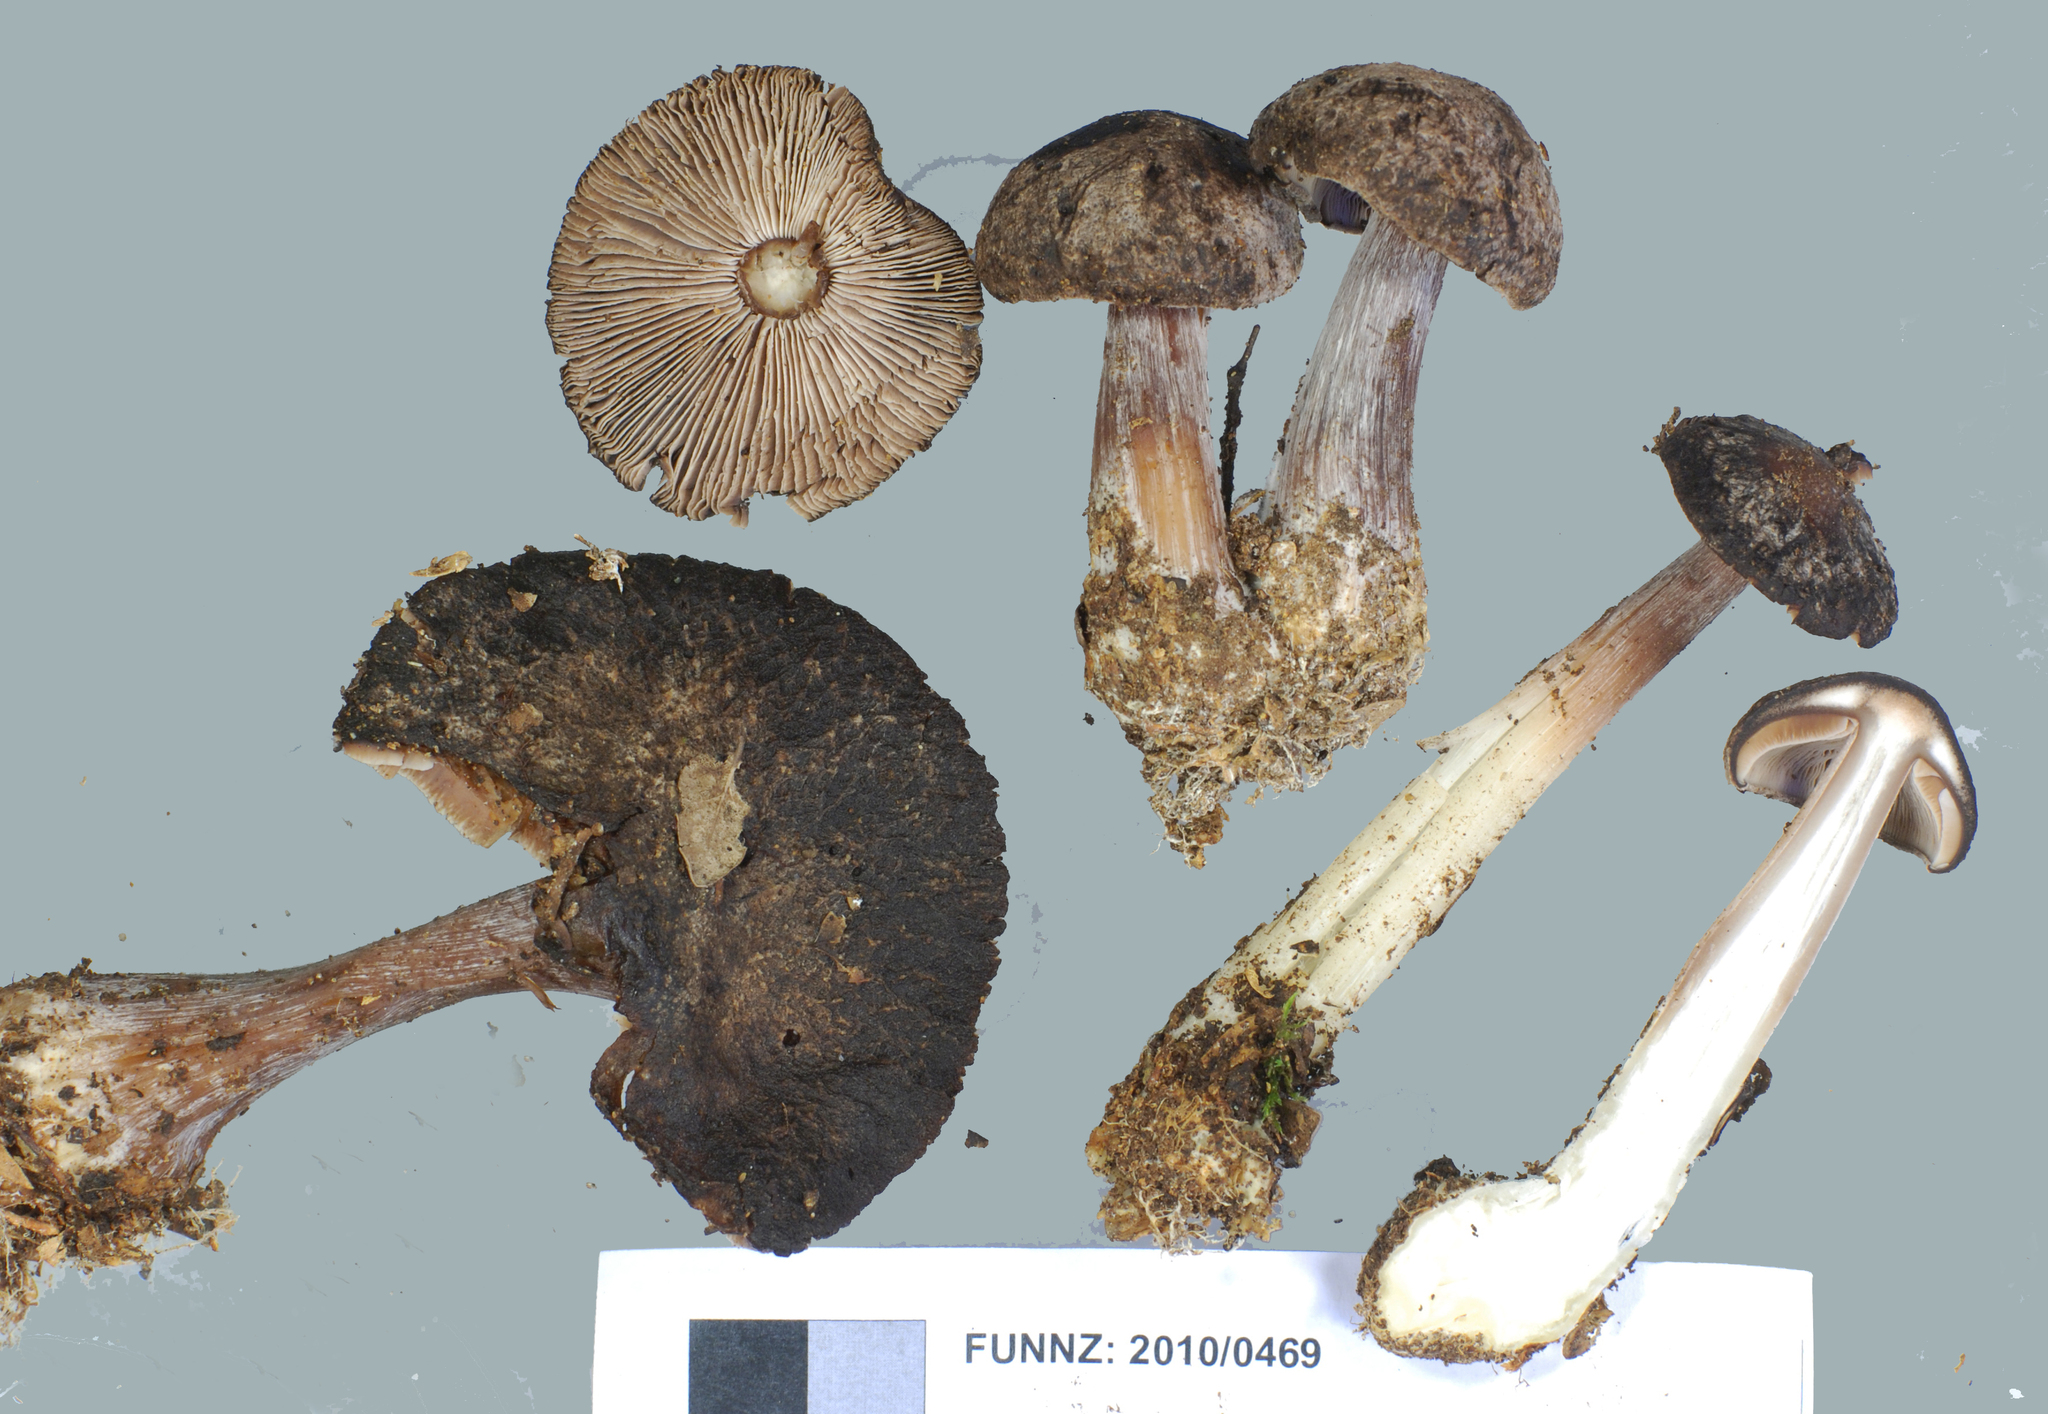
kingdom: Fungi
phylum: Basidiomycota
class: Agaricomycetes
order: Agaricales
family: Omphalotaceae
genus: Rhodocollybia
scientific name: Rhodocollybia purpurata
